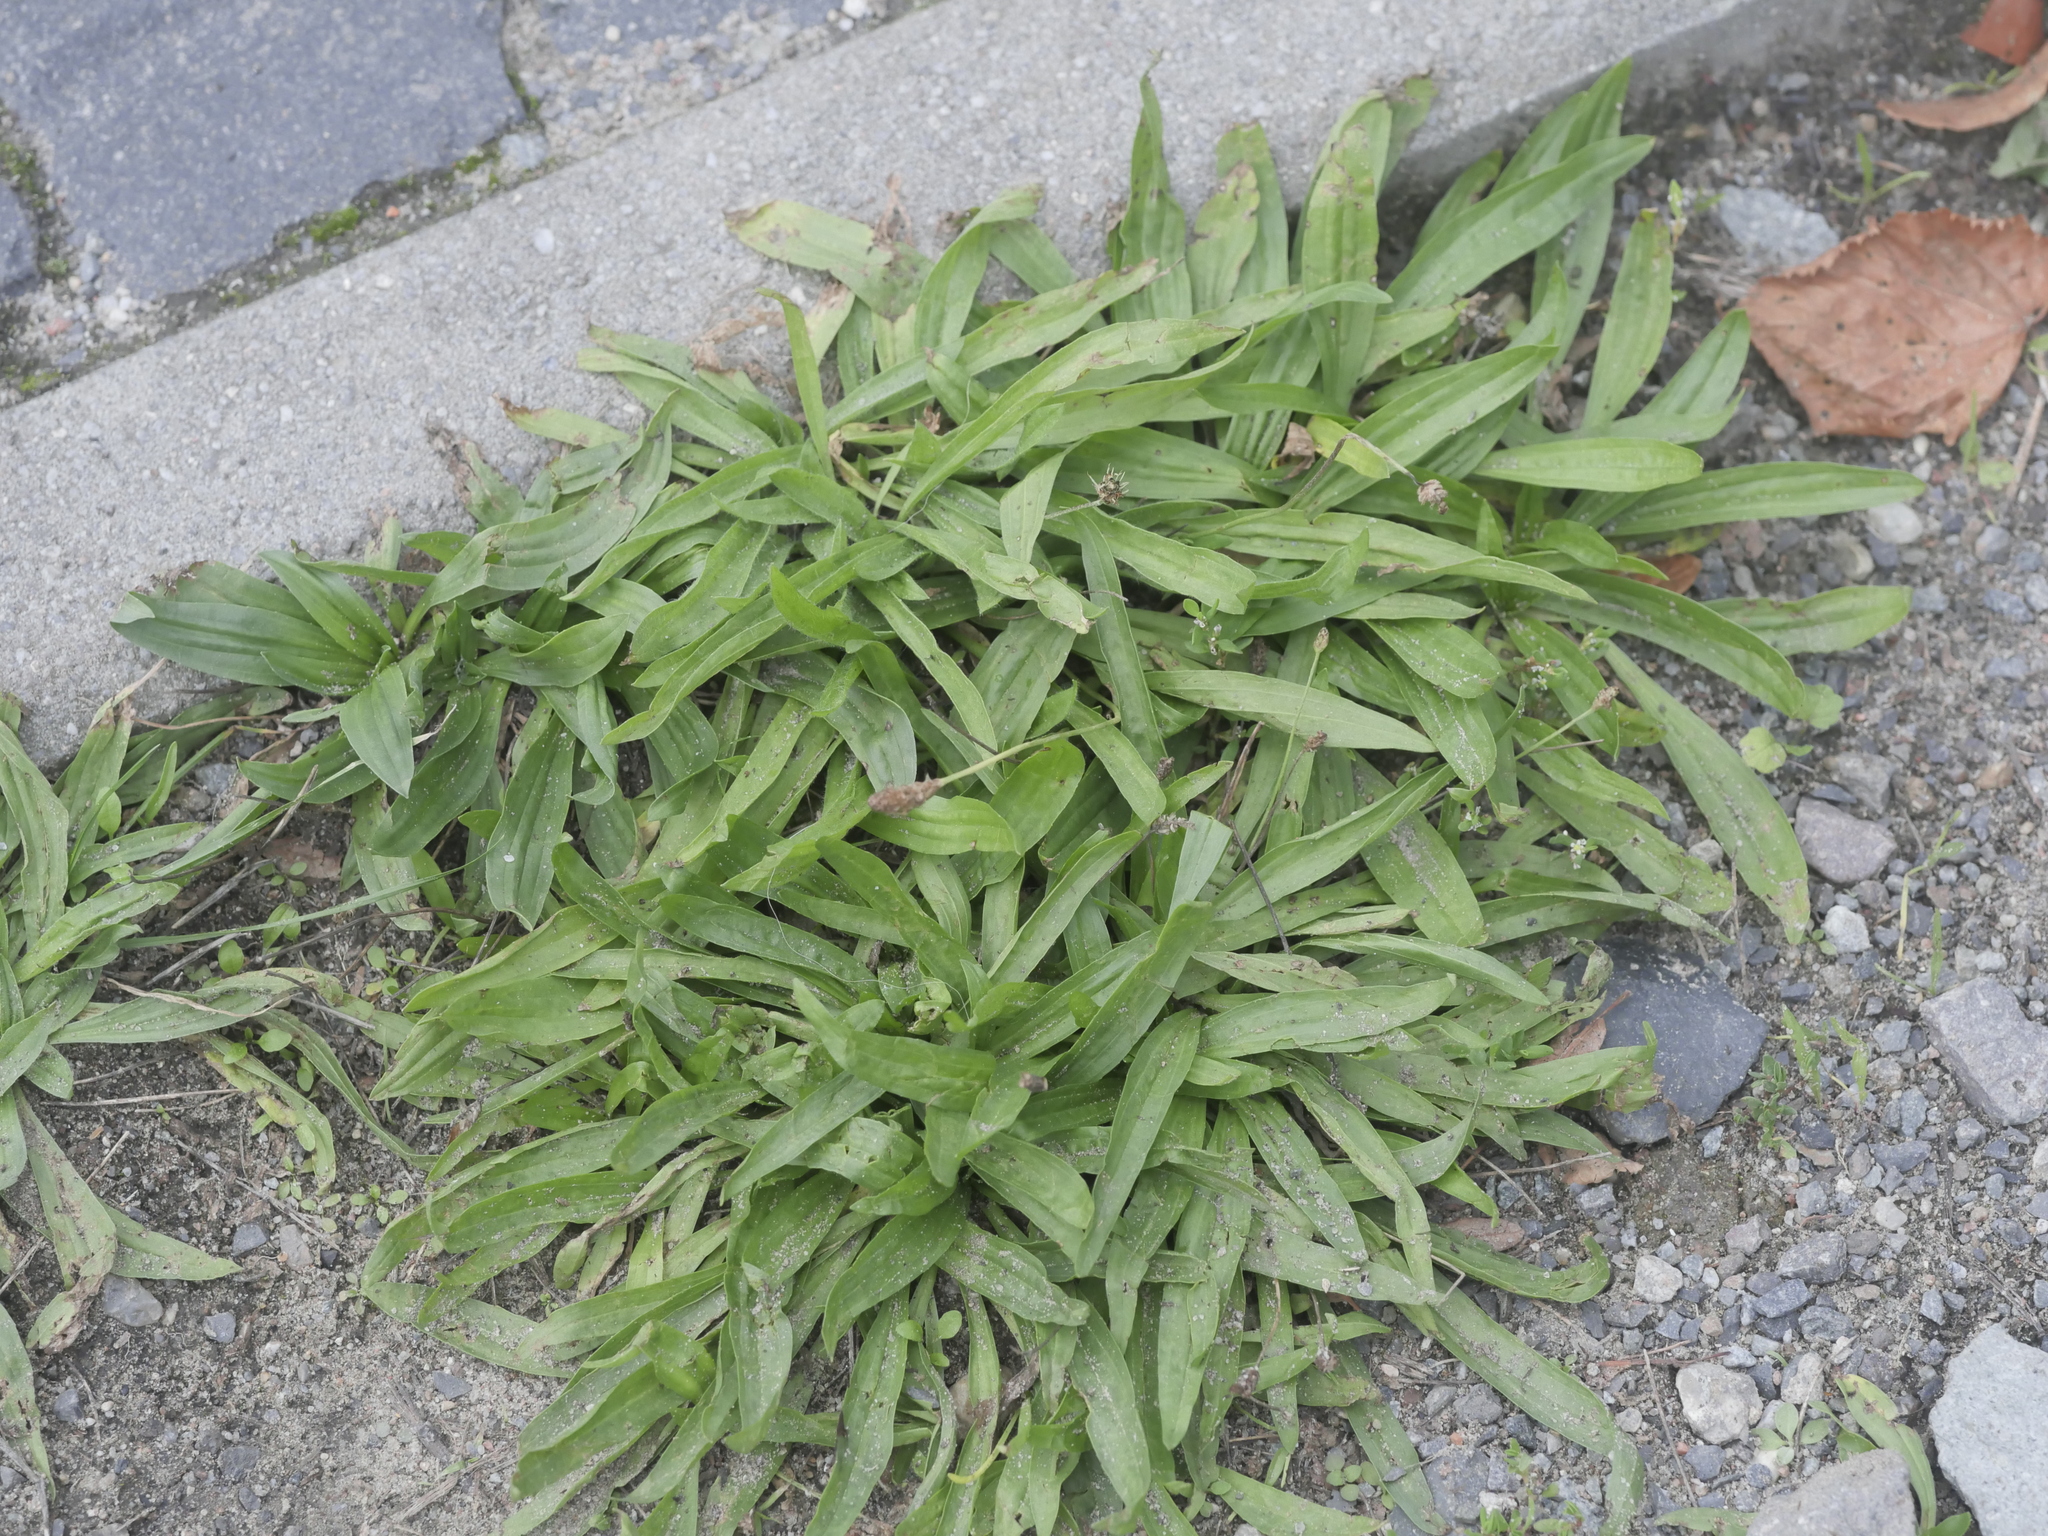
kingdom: Plantae
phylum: Tracheophyta
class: Magnoliopsida
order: Lamiales
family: Plantaginaceae
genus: Plantago
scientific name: Plantago lanceolata
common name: Ribwort plantain
